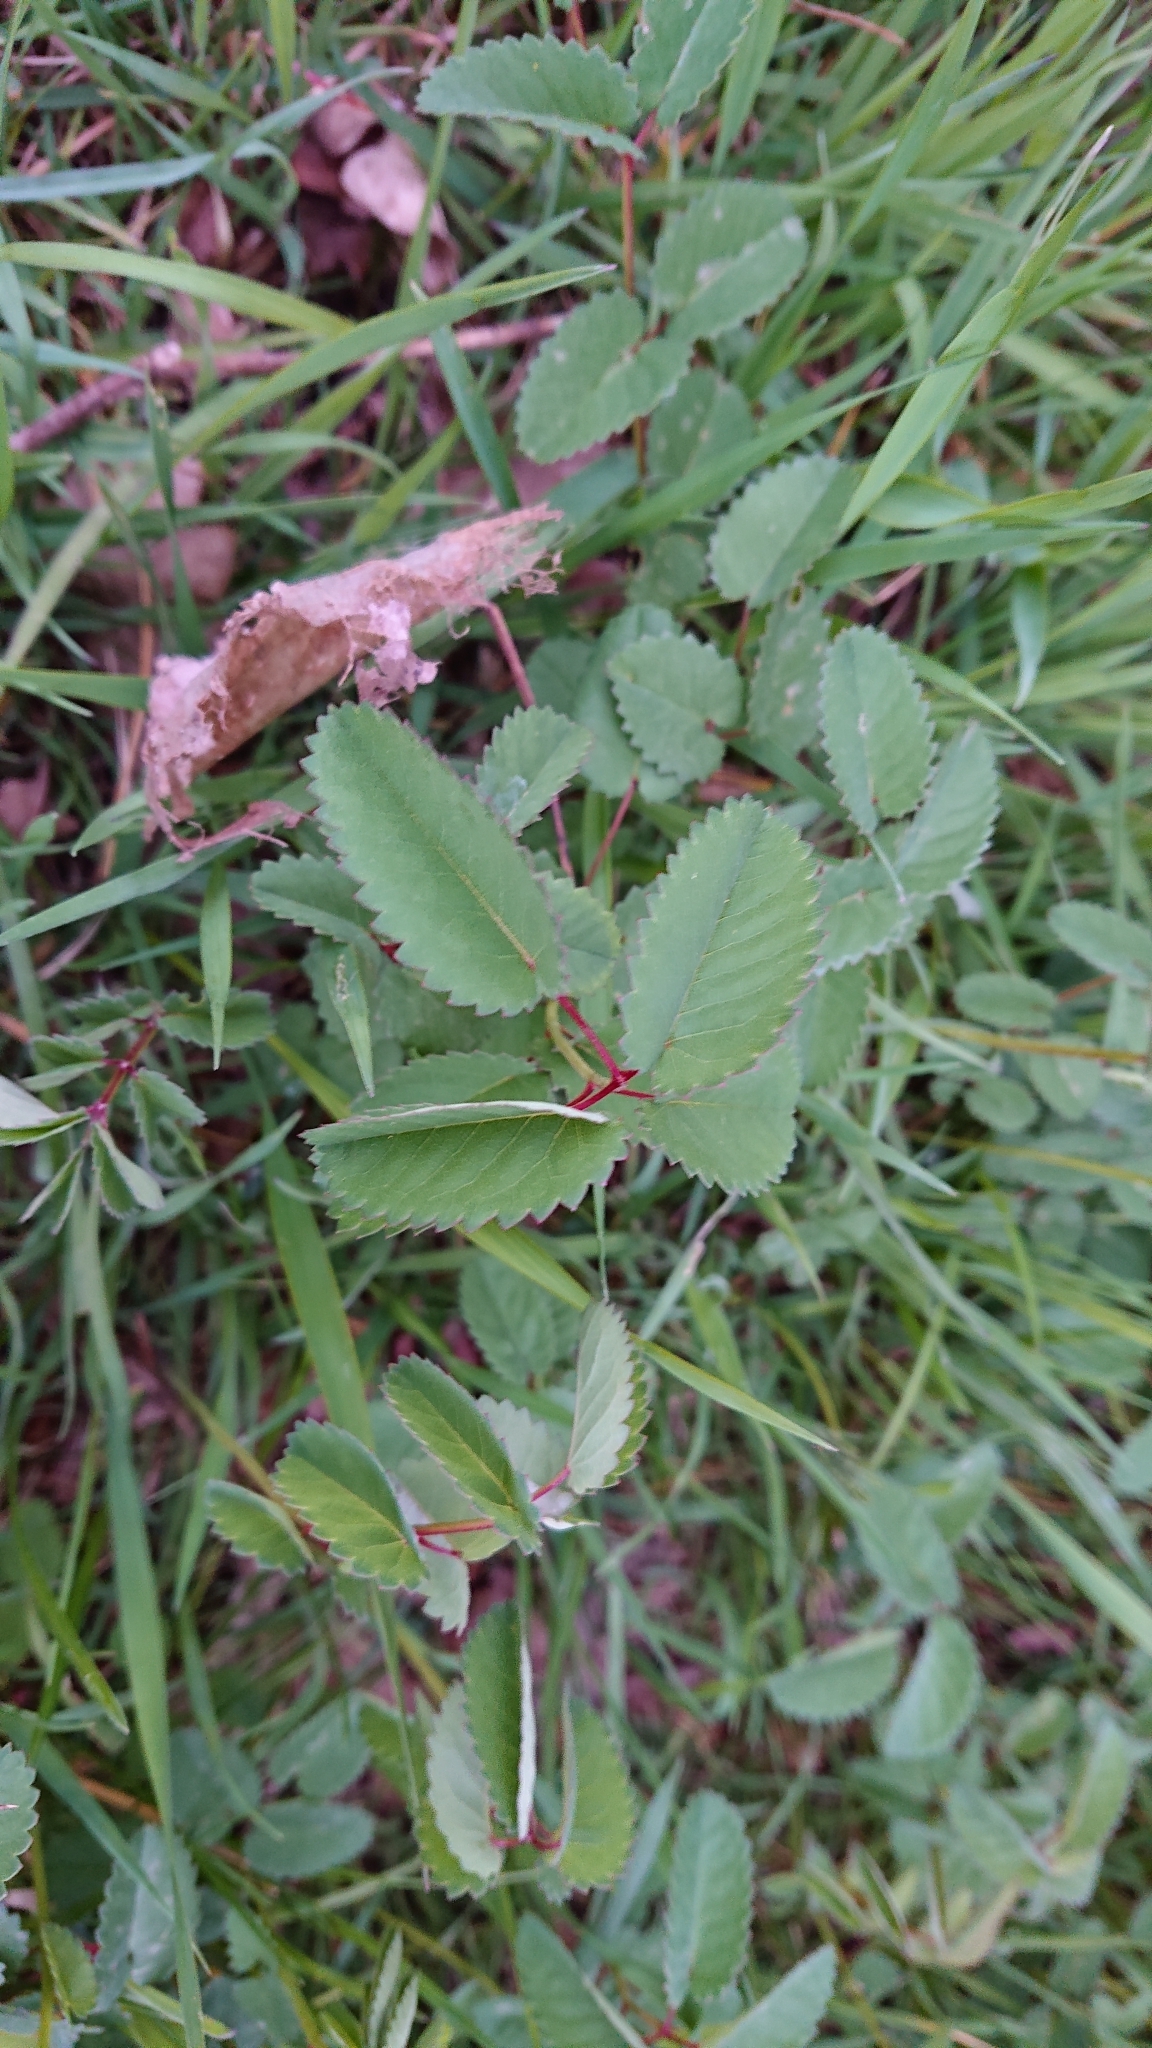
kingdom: Plantae
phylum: Tracheophyta
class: Magnoliopsida
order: Rosales
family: Rosaceae
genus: Sanguisorba
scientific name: Sanguisorba officinalis
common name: Great burnet
